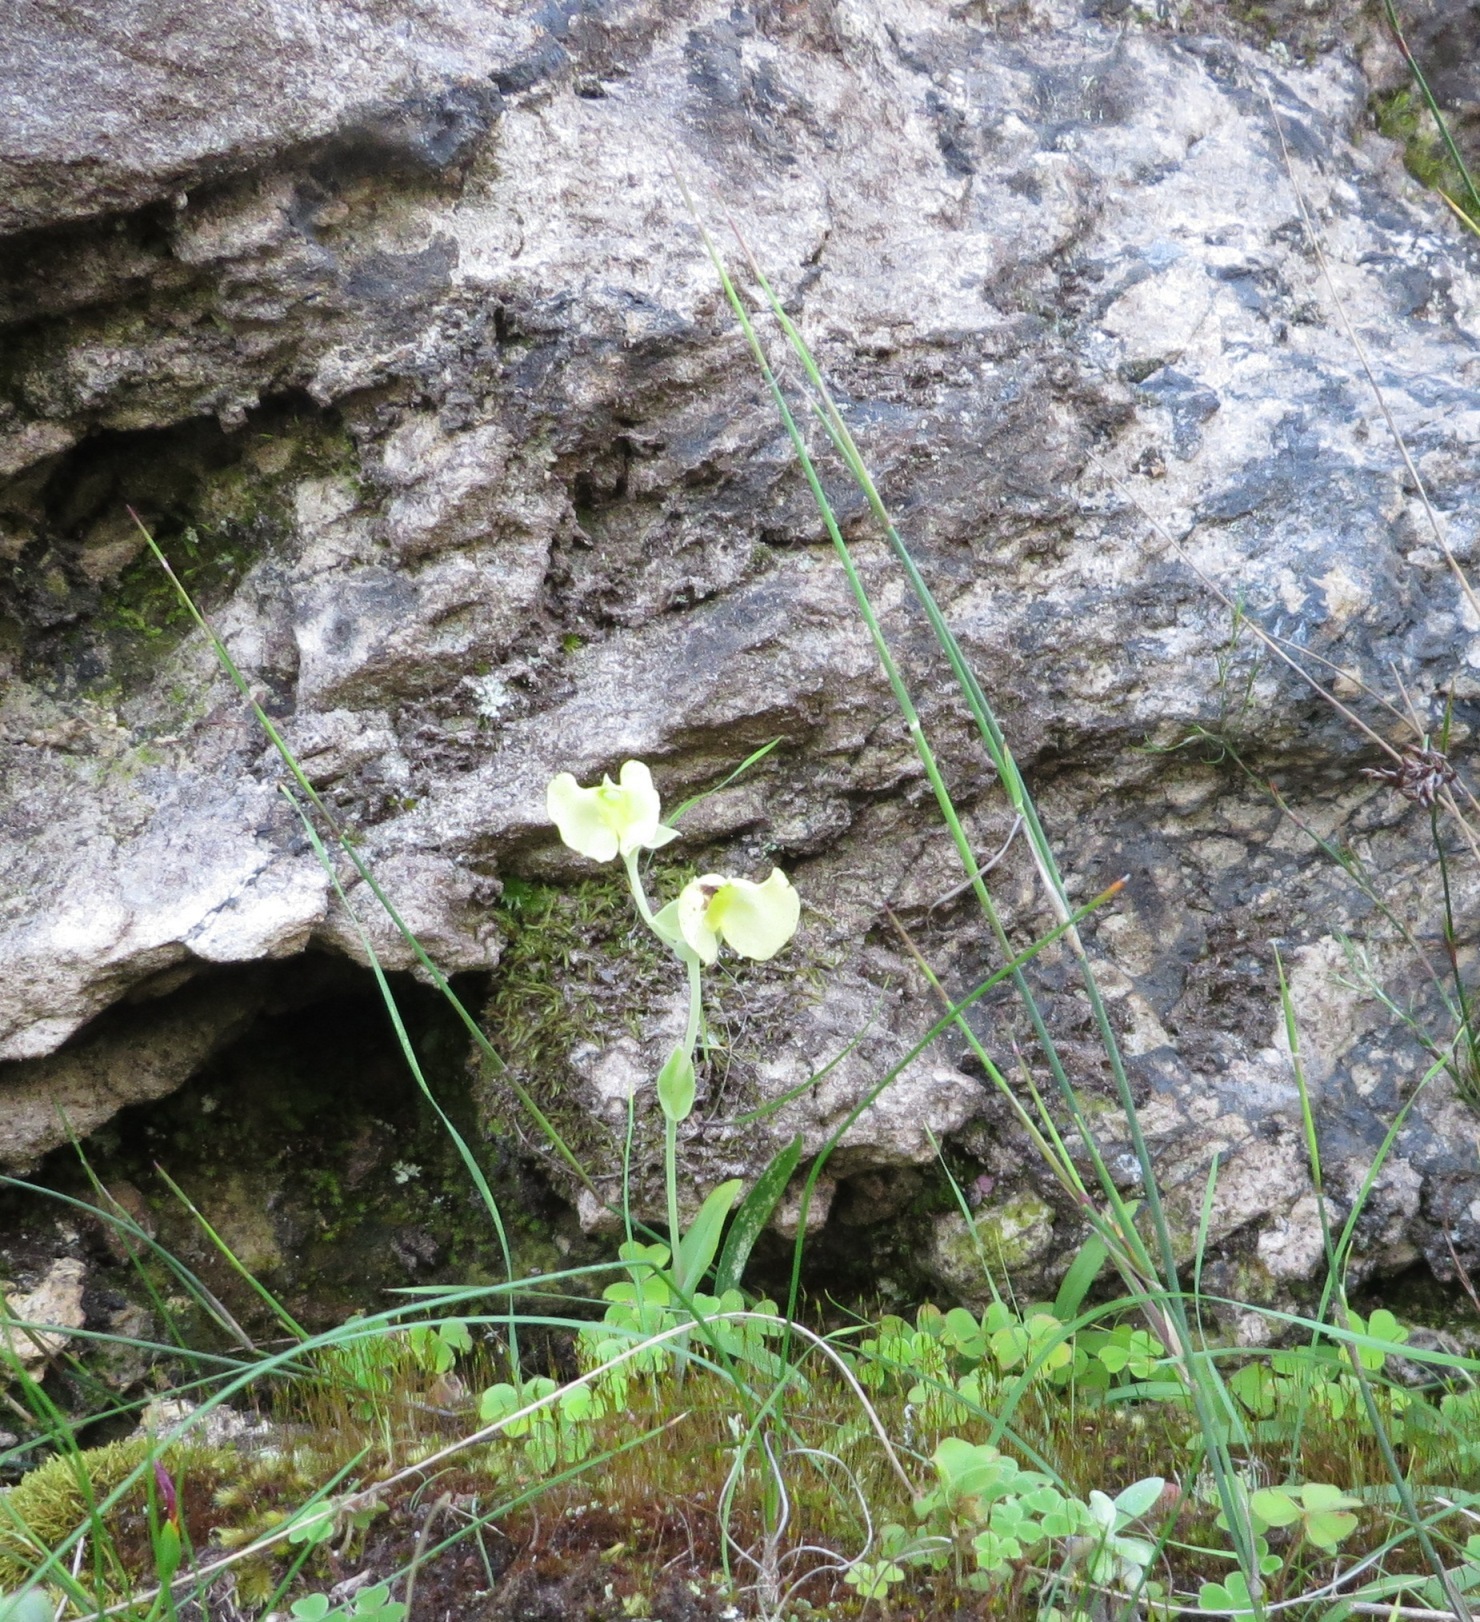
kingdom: Plantae
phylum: Tracheophyta
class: Liliopsida
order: Asparagales
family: Orchidaceae
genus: Pterygodium
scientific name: Pterygodium platypetalum
